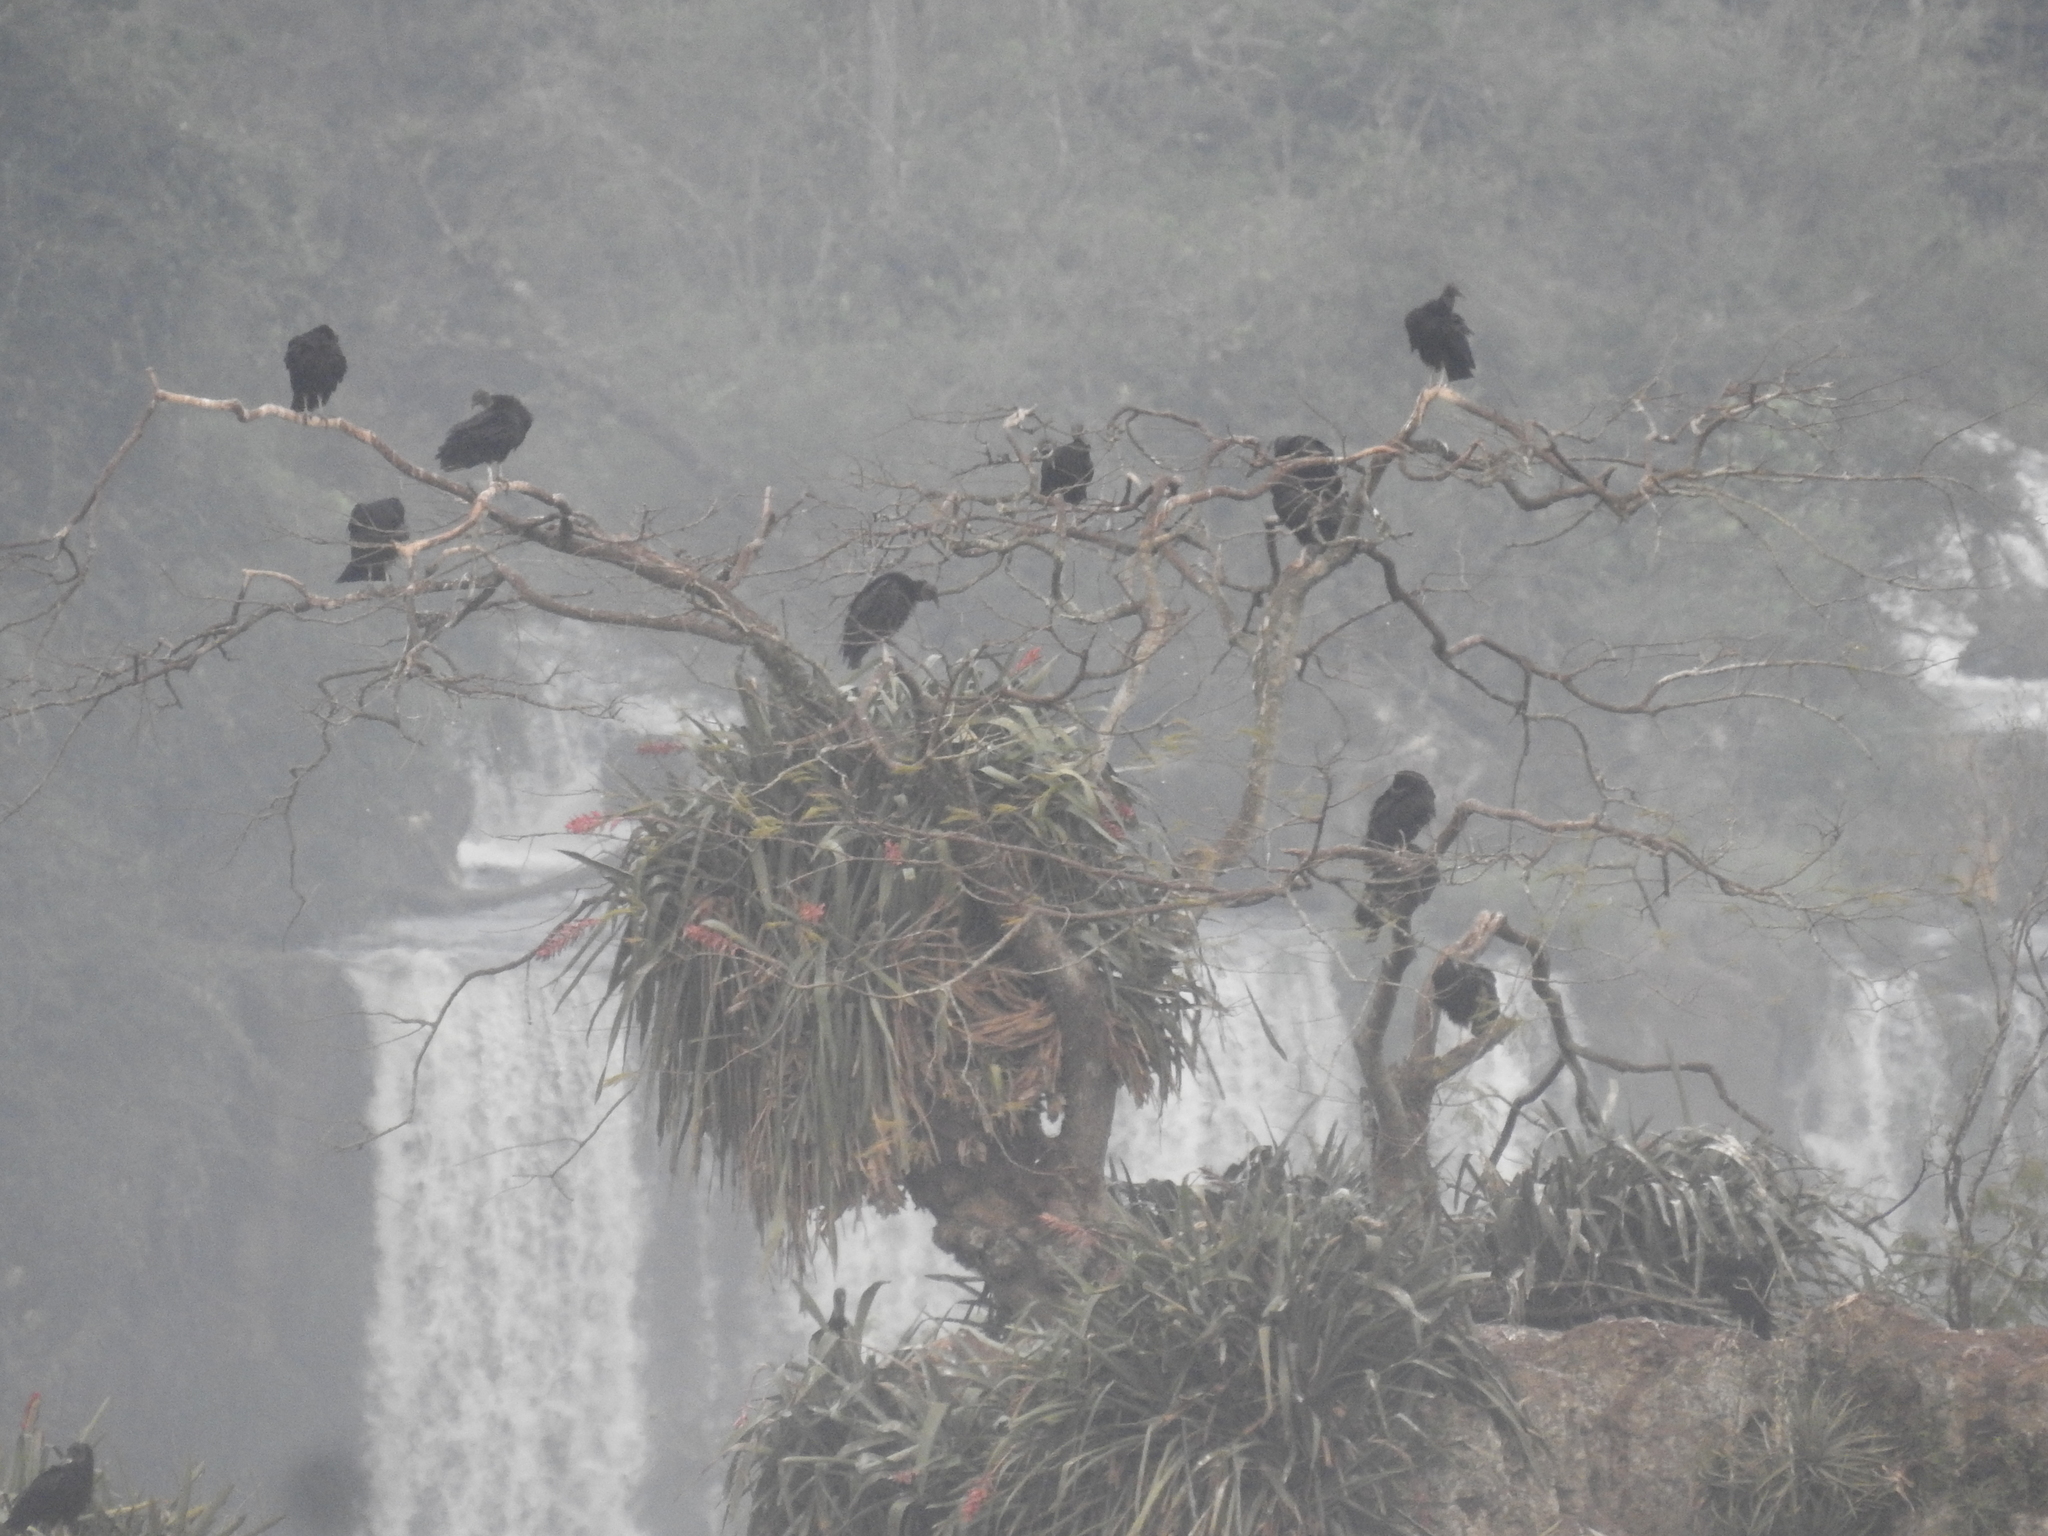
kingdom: Animalia
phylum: Chordata
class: Aves
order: Accipitriformes
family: Cathartidae
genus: Coragyps
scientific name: Coragyps atratus
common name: Black vulture
